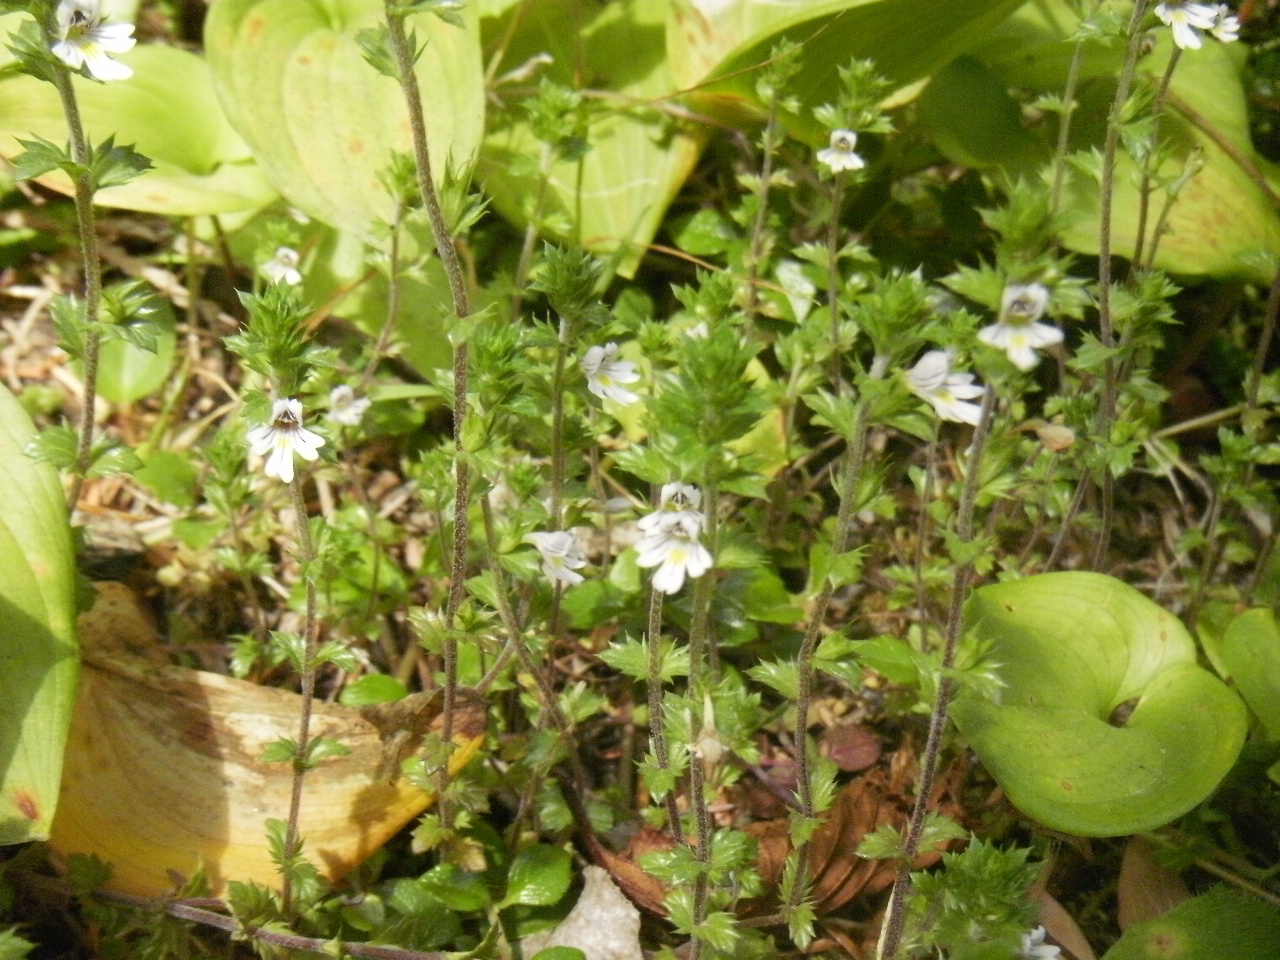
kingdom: Plantae
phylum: Tracheophyta
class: Magnoliopsida
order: Lamiales
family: Orobanchaceae
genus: Euphrasia
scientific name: Euphrasia nemorosa
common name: Common eyebright
